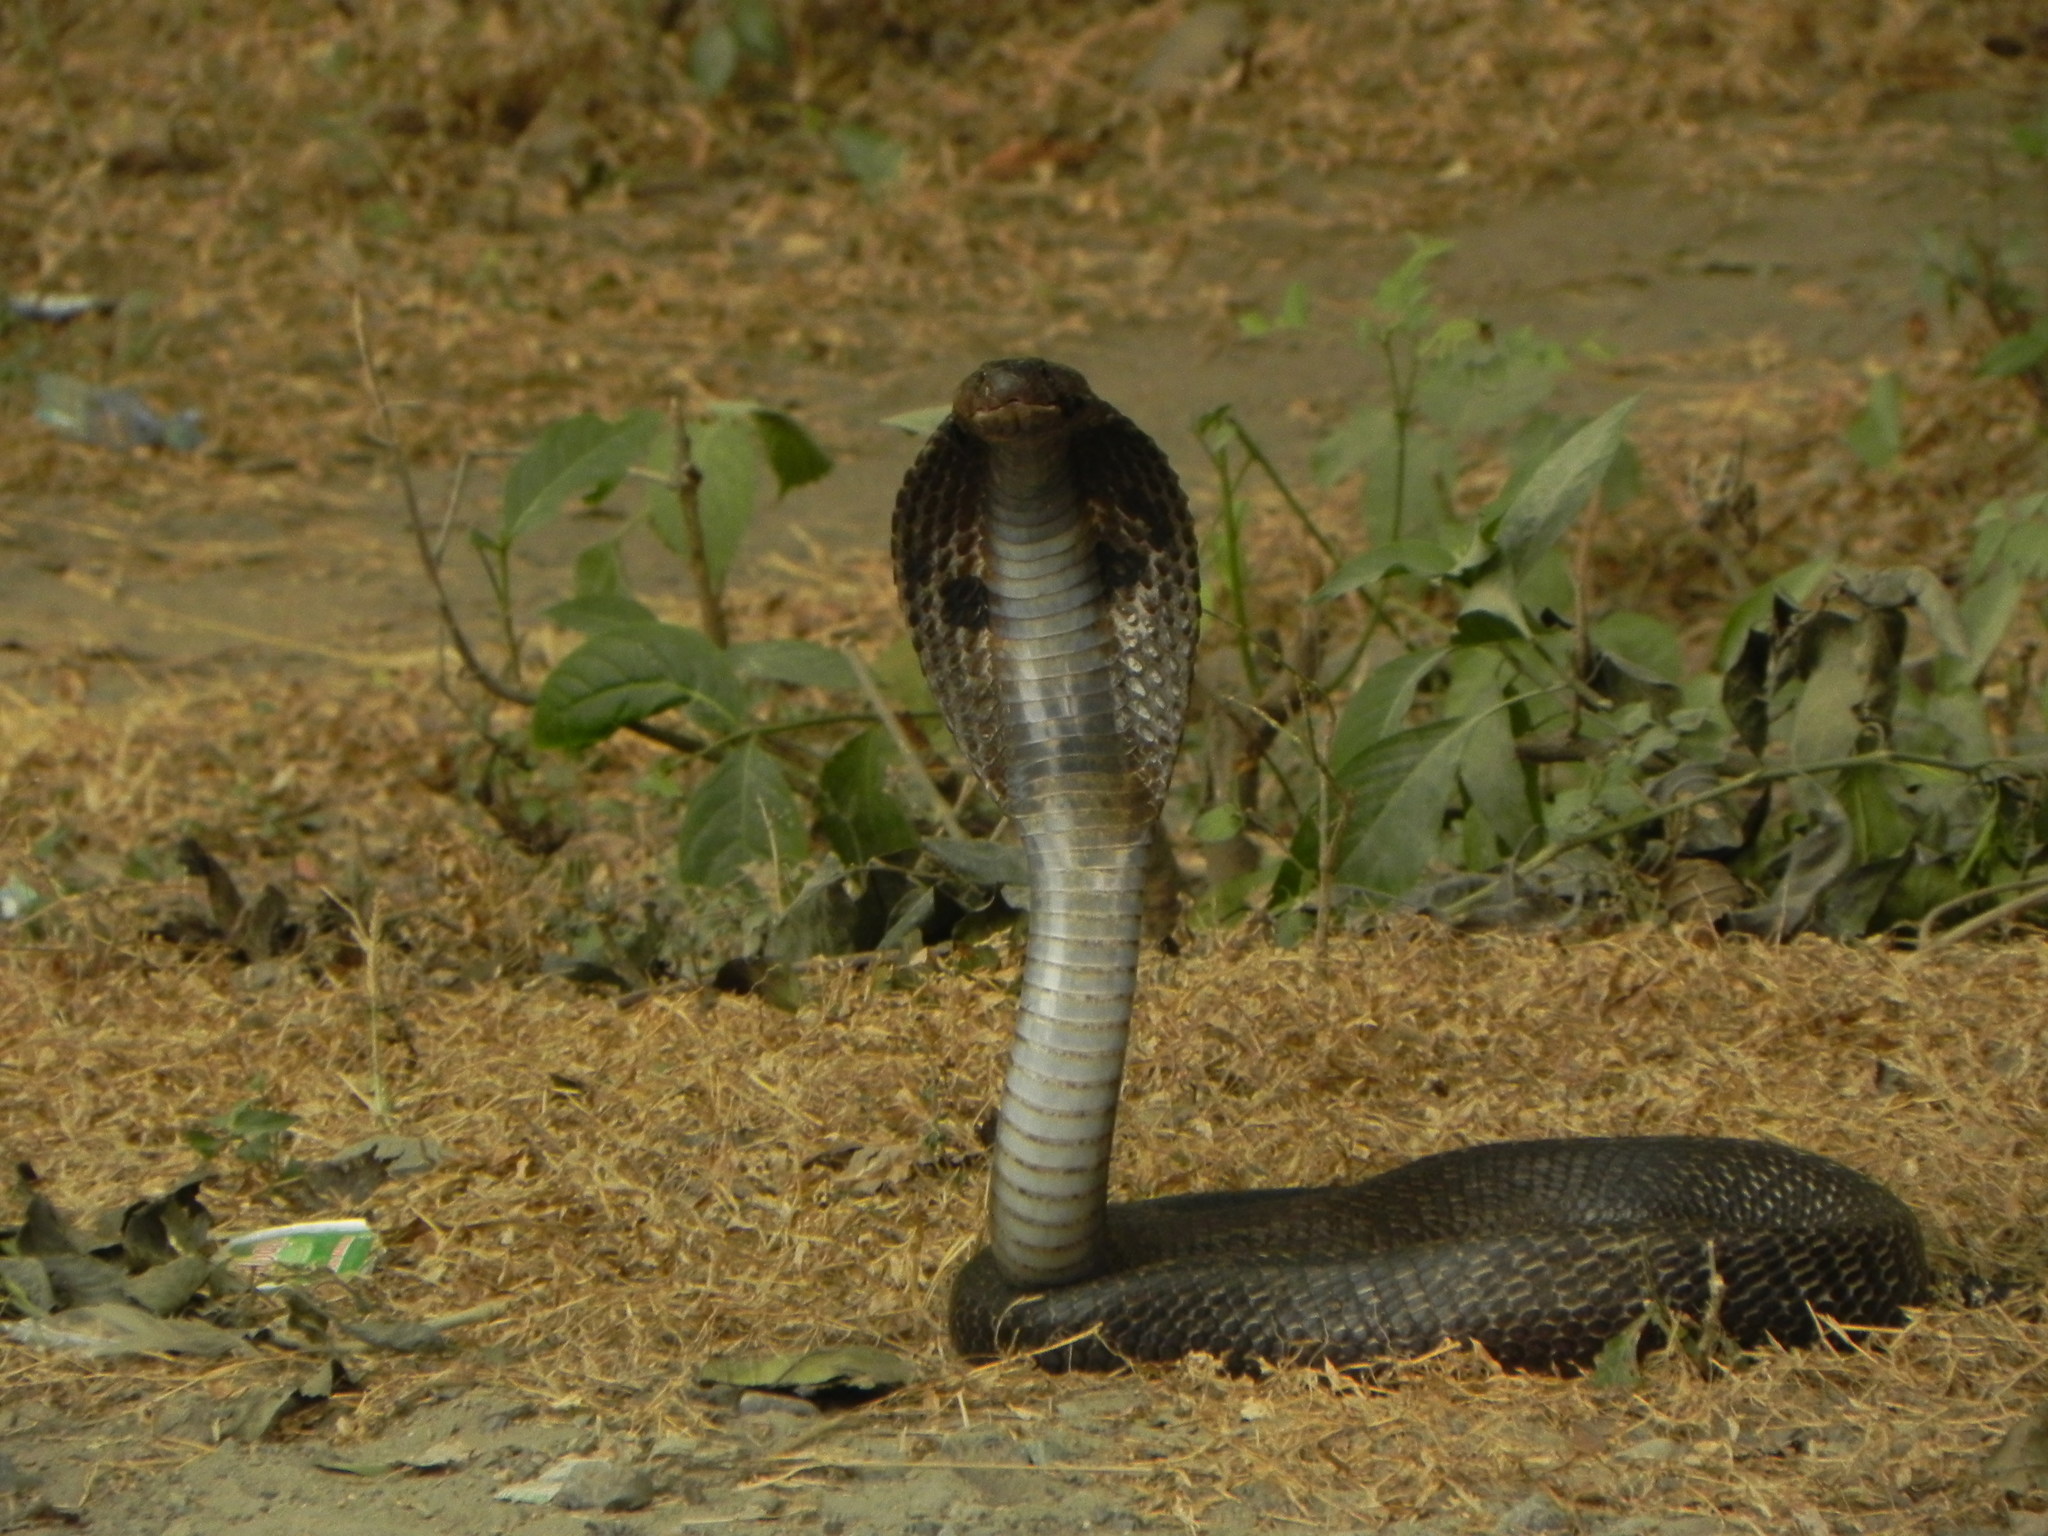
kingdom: Animalia
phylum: Chordata
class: Squamata
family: Elapidae
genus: Naja
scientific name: Naja naja
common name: Indian cobra
